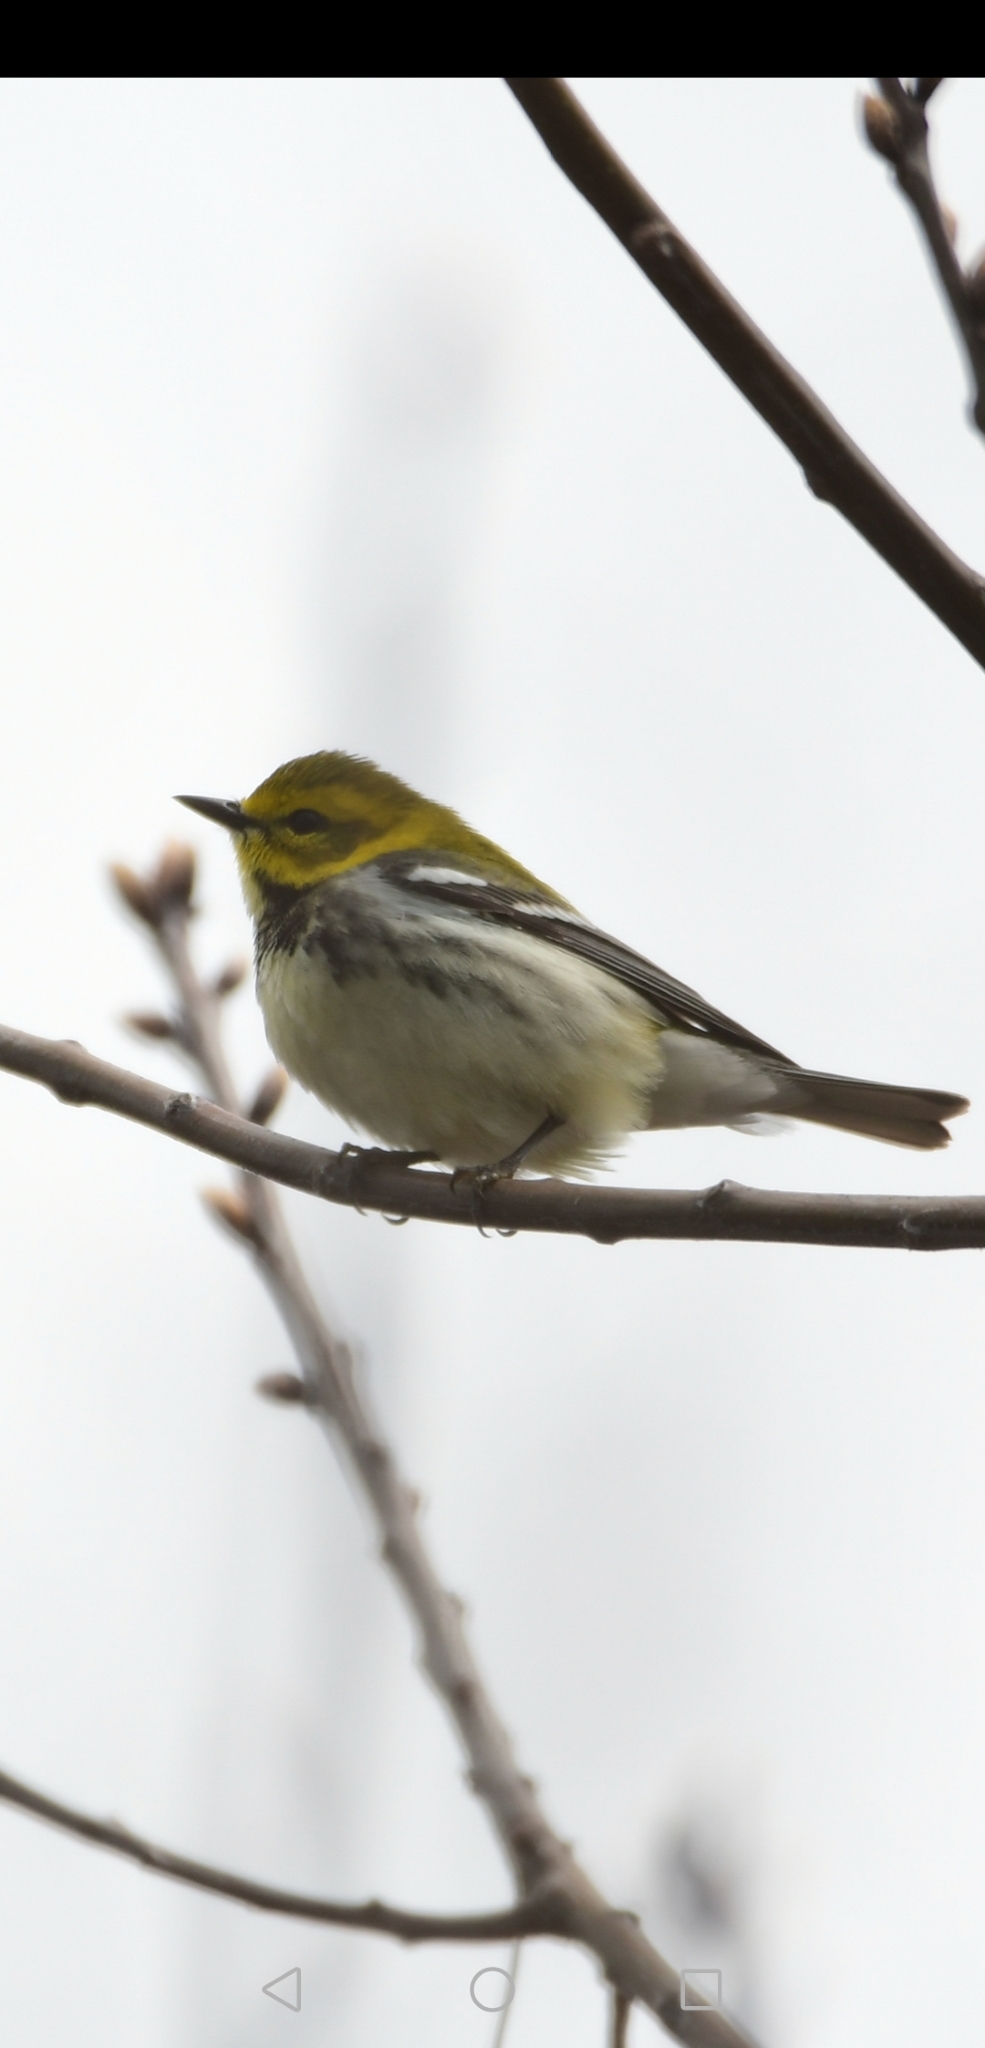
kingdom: Animalia
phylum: Chordata
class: Aves
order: Passeriformes
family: Parulidae
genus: Setophaga
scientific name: Setophaga virens
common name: Black-throated green warbler
